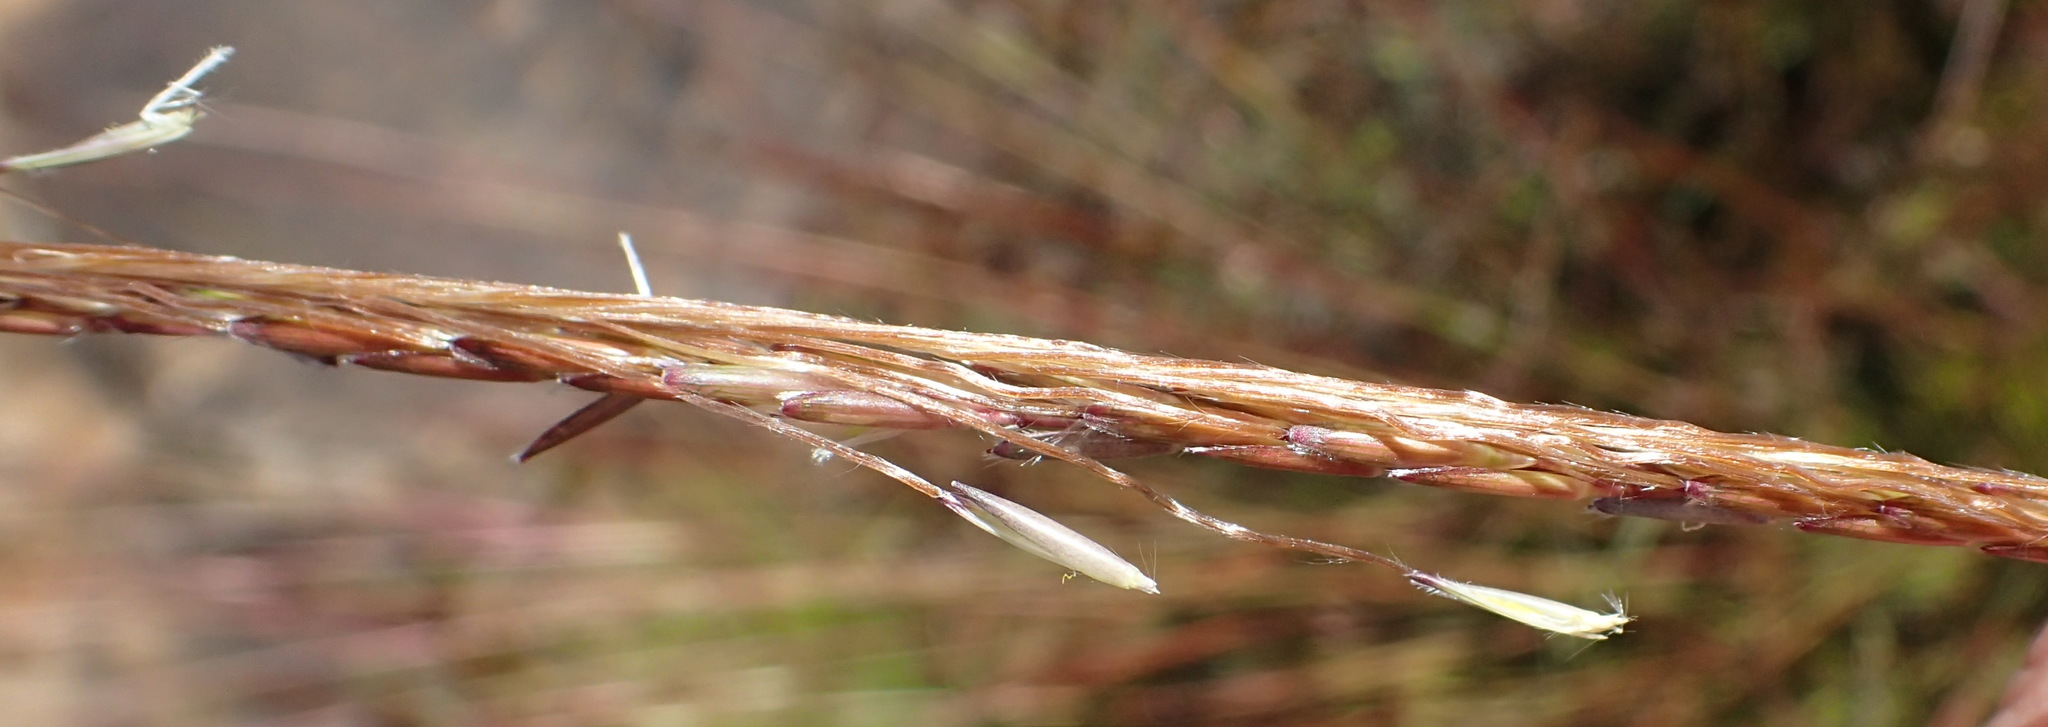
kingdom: Plantae
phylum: Tracheophyta
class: Liliopsida
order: Poales
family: Poaceae
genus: Heteropogon
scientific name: Heteropogon contortus
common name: Tanglehead
